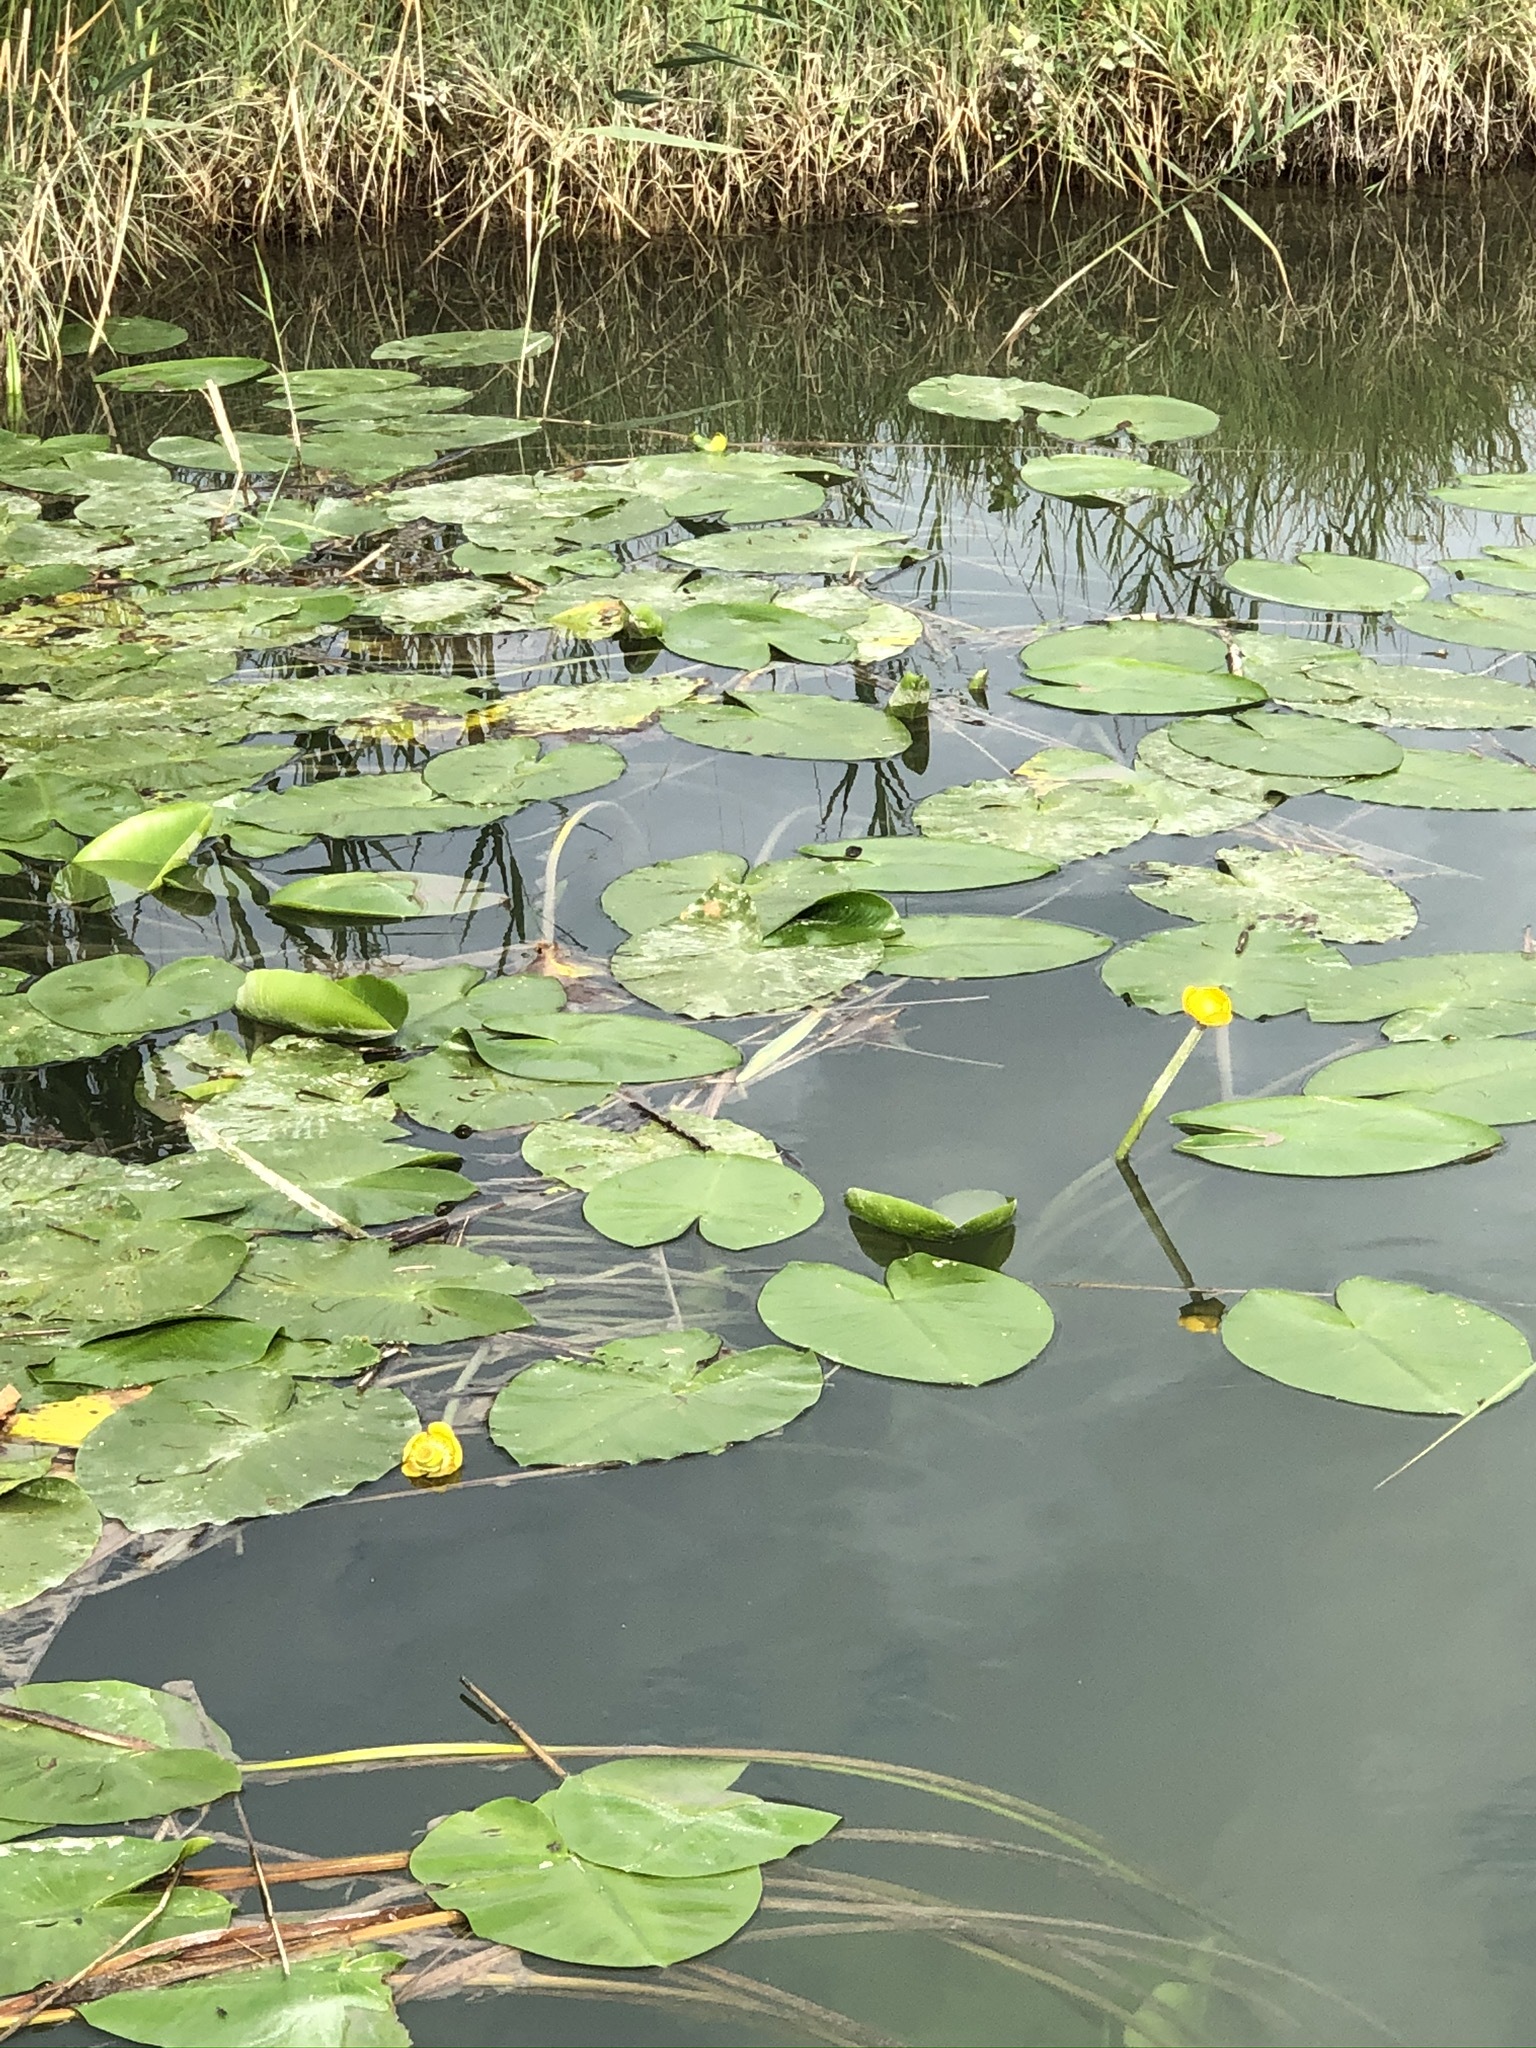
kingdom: Plantae
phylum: Tracheophyta
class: Magnoliopsida
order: Nymphaeales
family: Nymphaeaceae
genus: Nuphar
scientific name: Nuphar lutea
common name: Yellow water-lily
